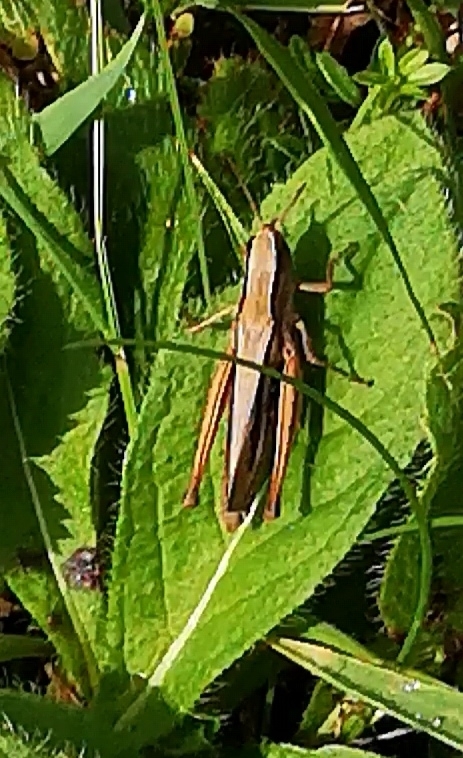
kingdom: Animalia
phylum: Arthropoda
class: Insecta
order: Orthoptera
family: Acrididae
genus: Chorthippus
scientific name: Chorthippus albomarginatus
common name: Lesser marsh grasshopper
